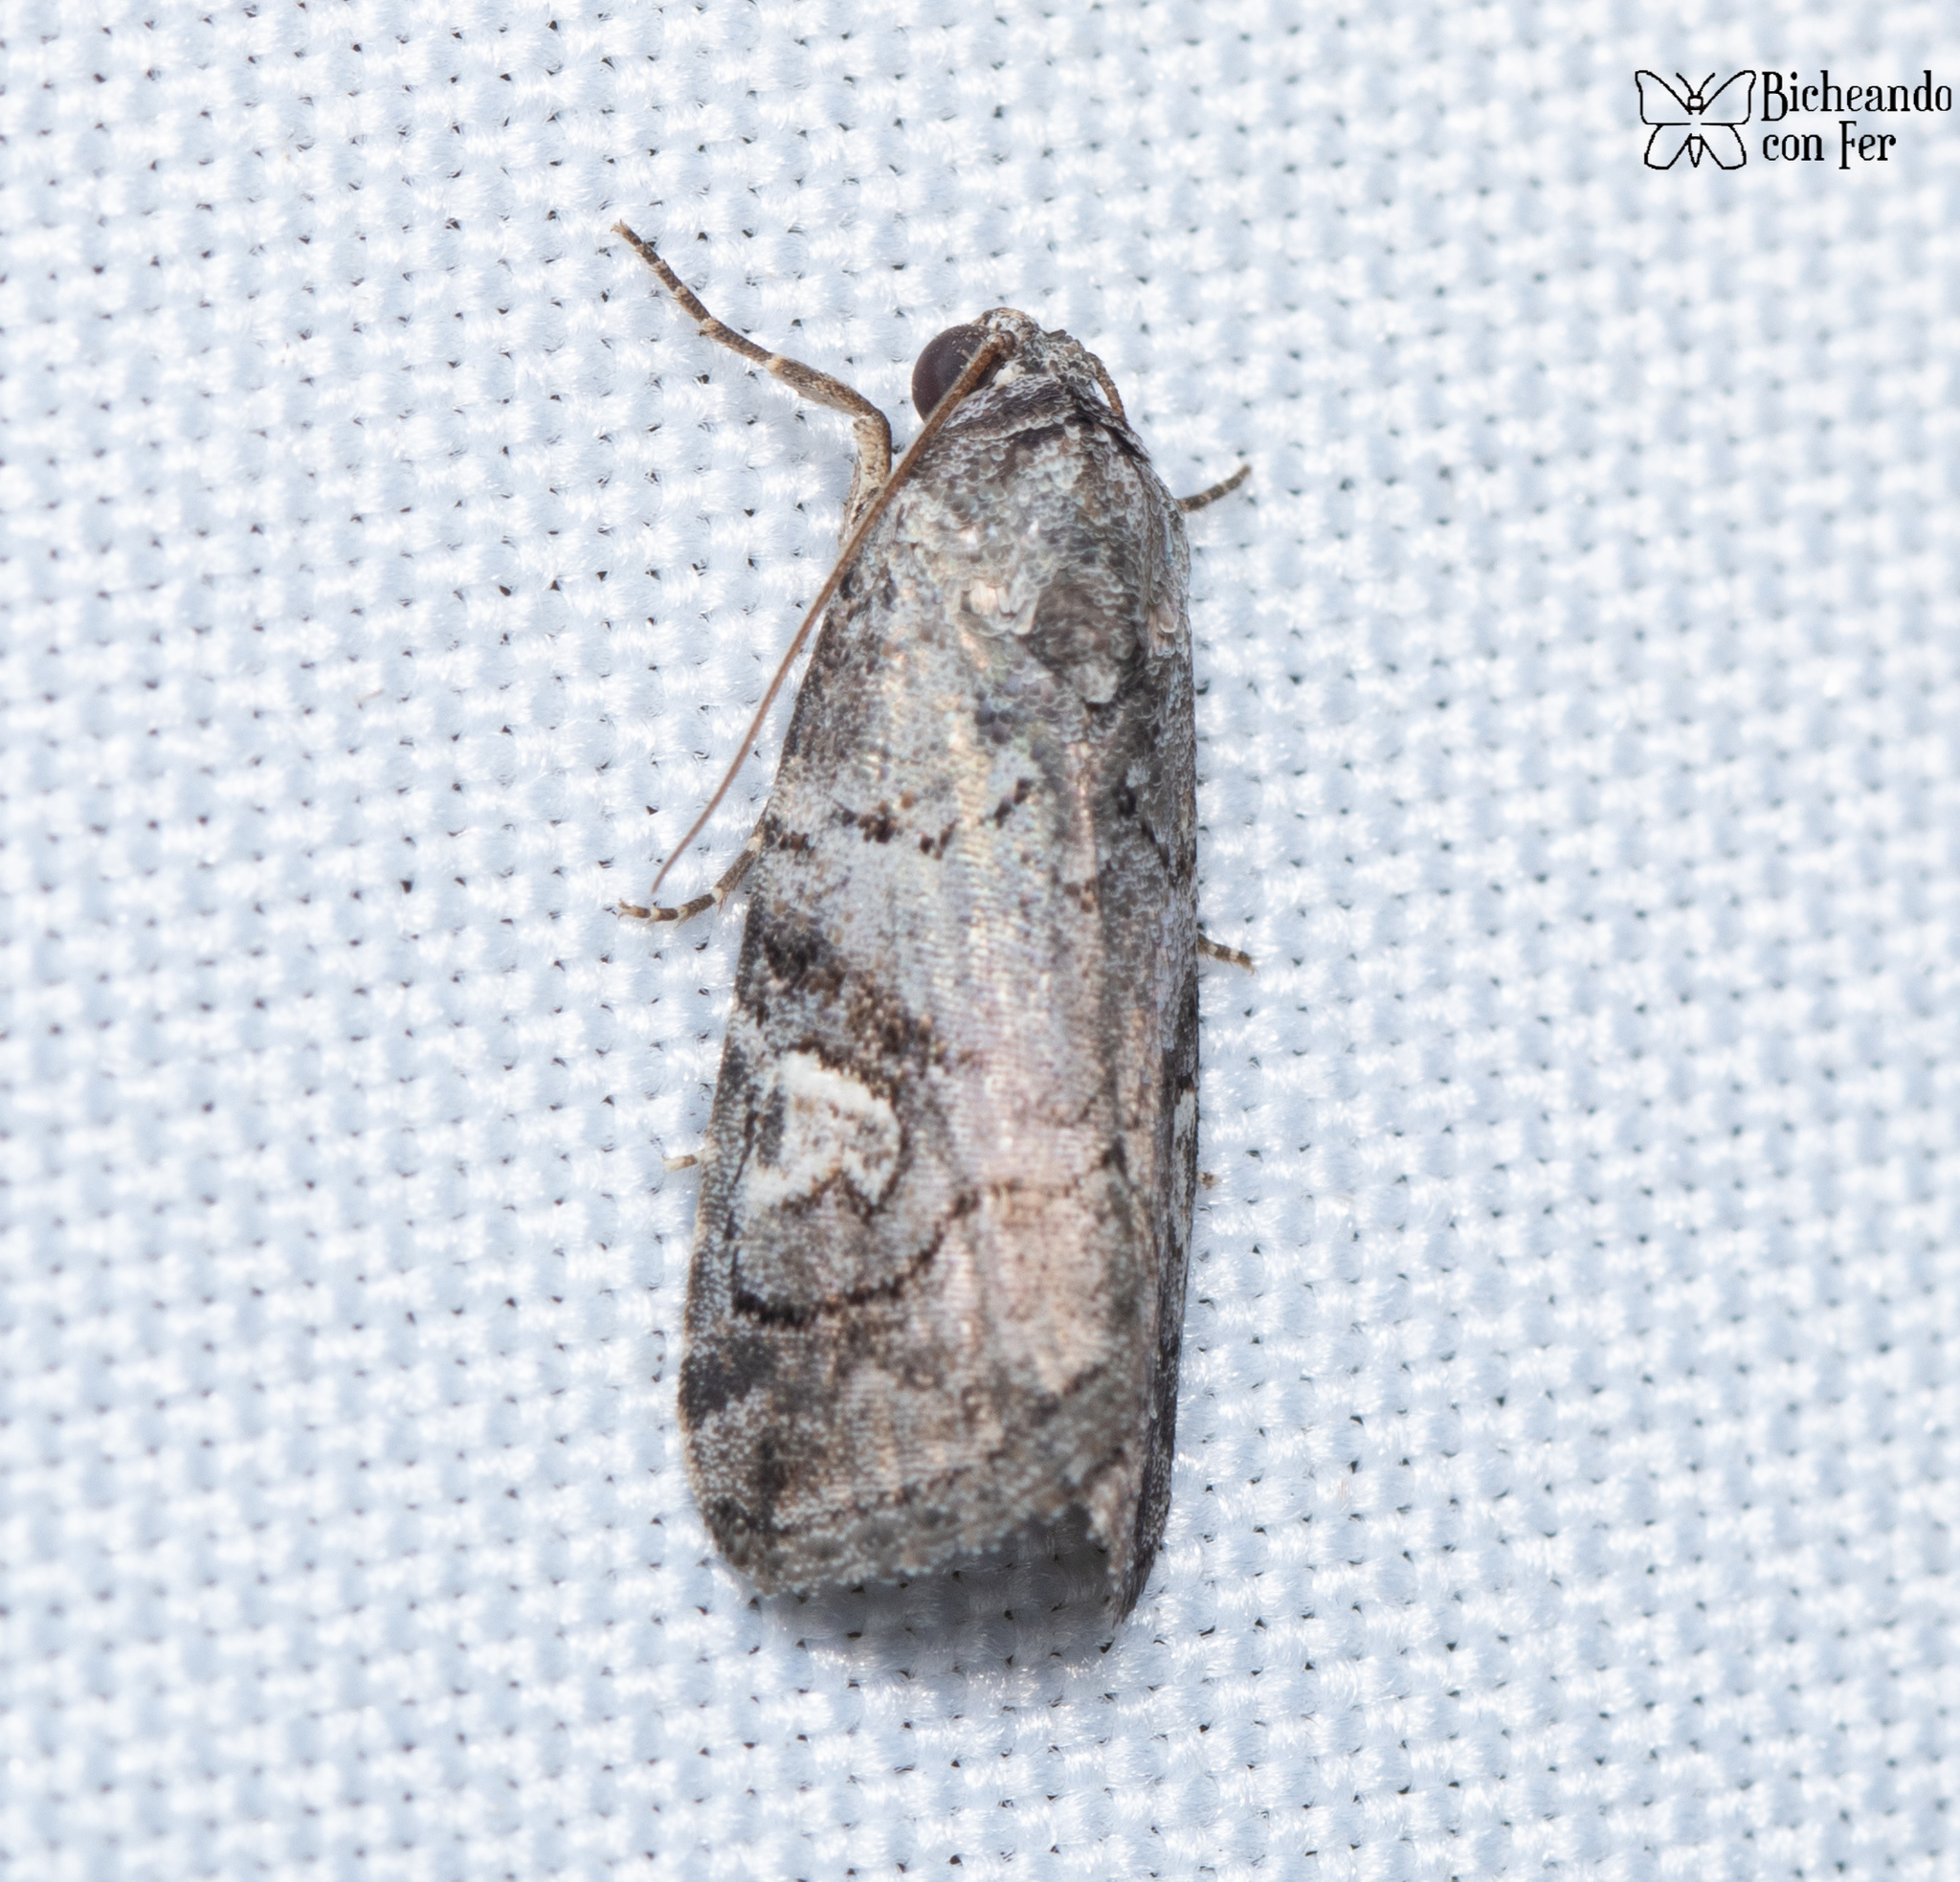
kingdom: Animalia
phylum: Arthropoda
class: Insecta
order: Lepidoptera
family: Noctuidae
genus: Metaponpneumata
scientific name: Metaponpneumata rogenhoferi
